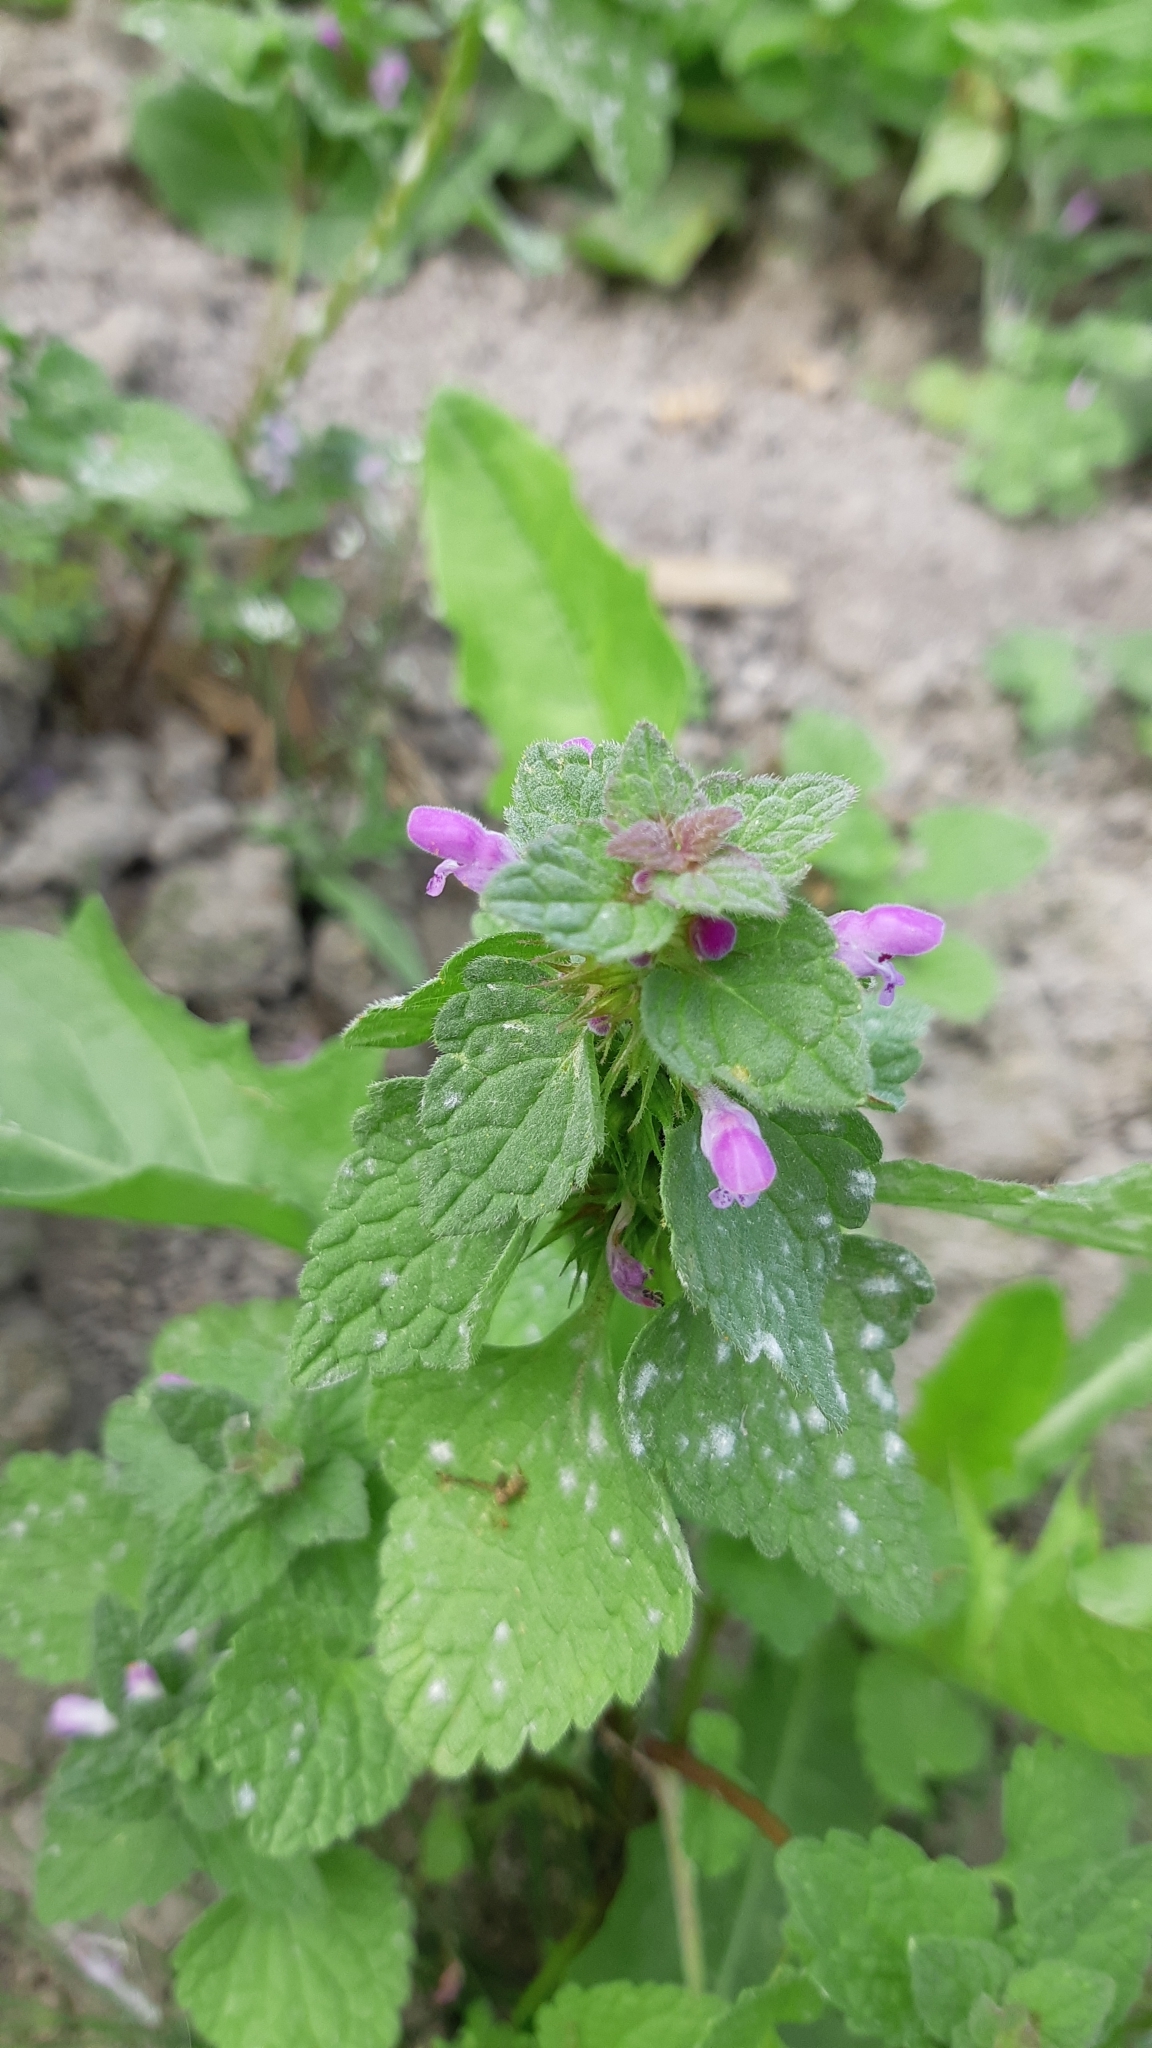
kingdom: Plantae
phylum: Tracheophyta
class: Magnoliopsida
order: Lamiales
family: Lamiaceae
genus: Lamium
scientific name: Lamium purpureum
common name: Red dead-nettle
